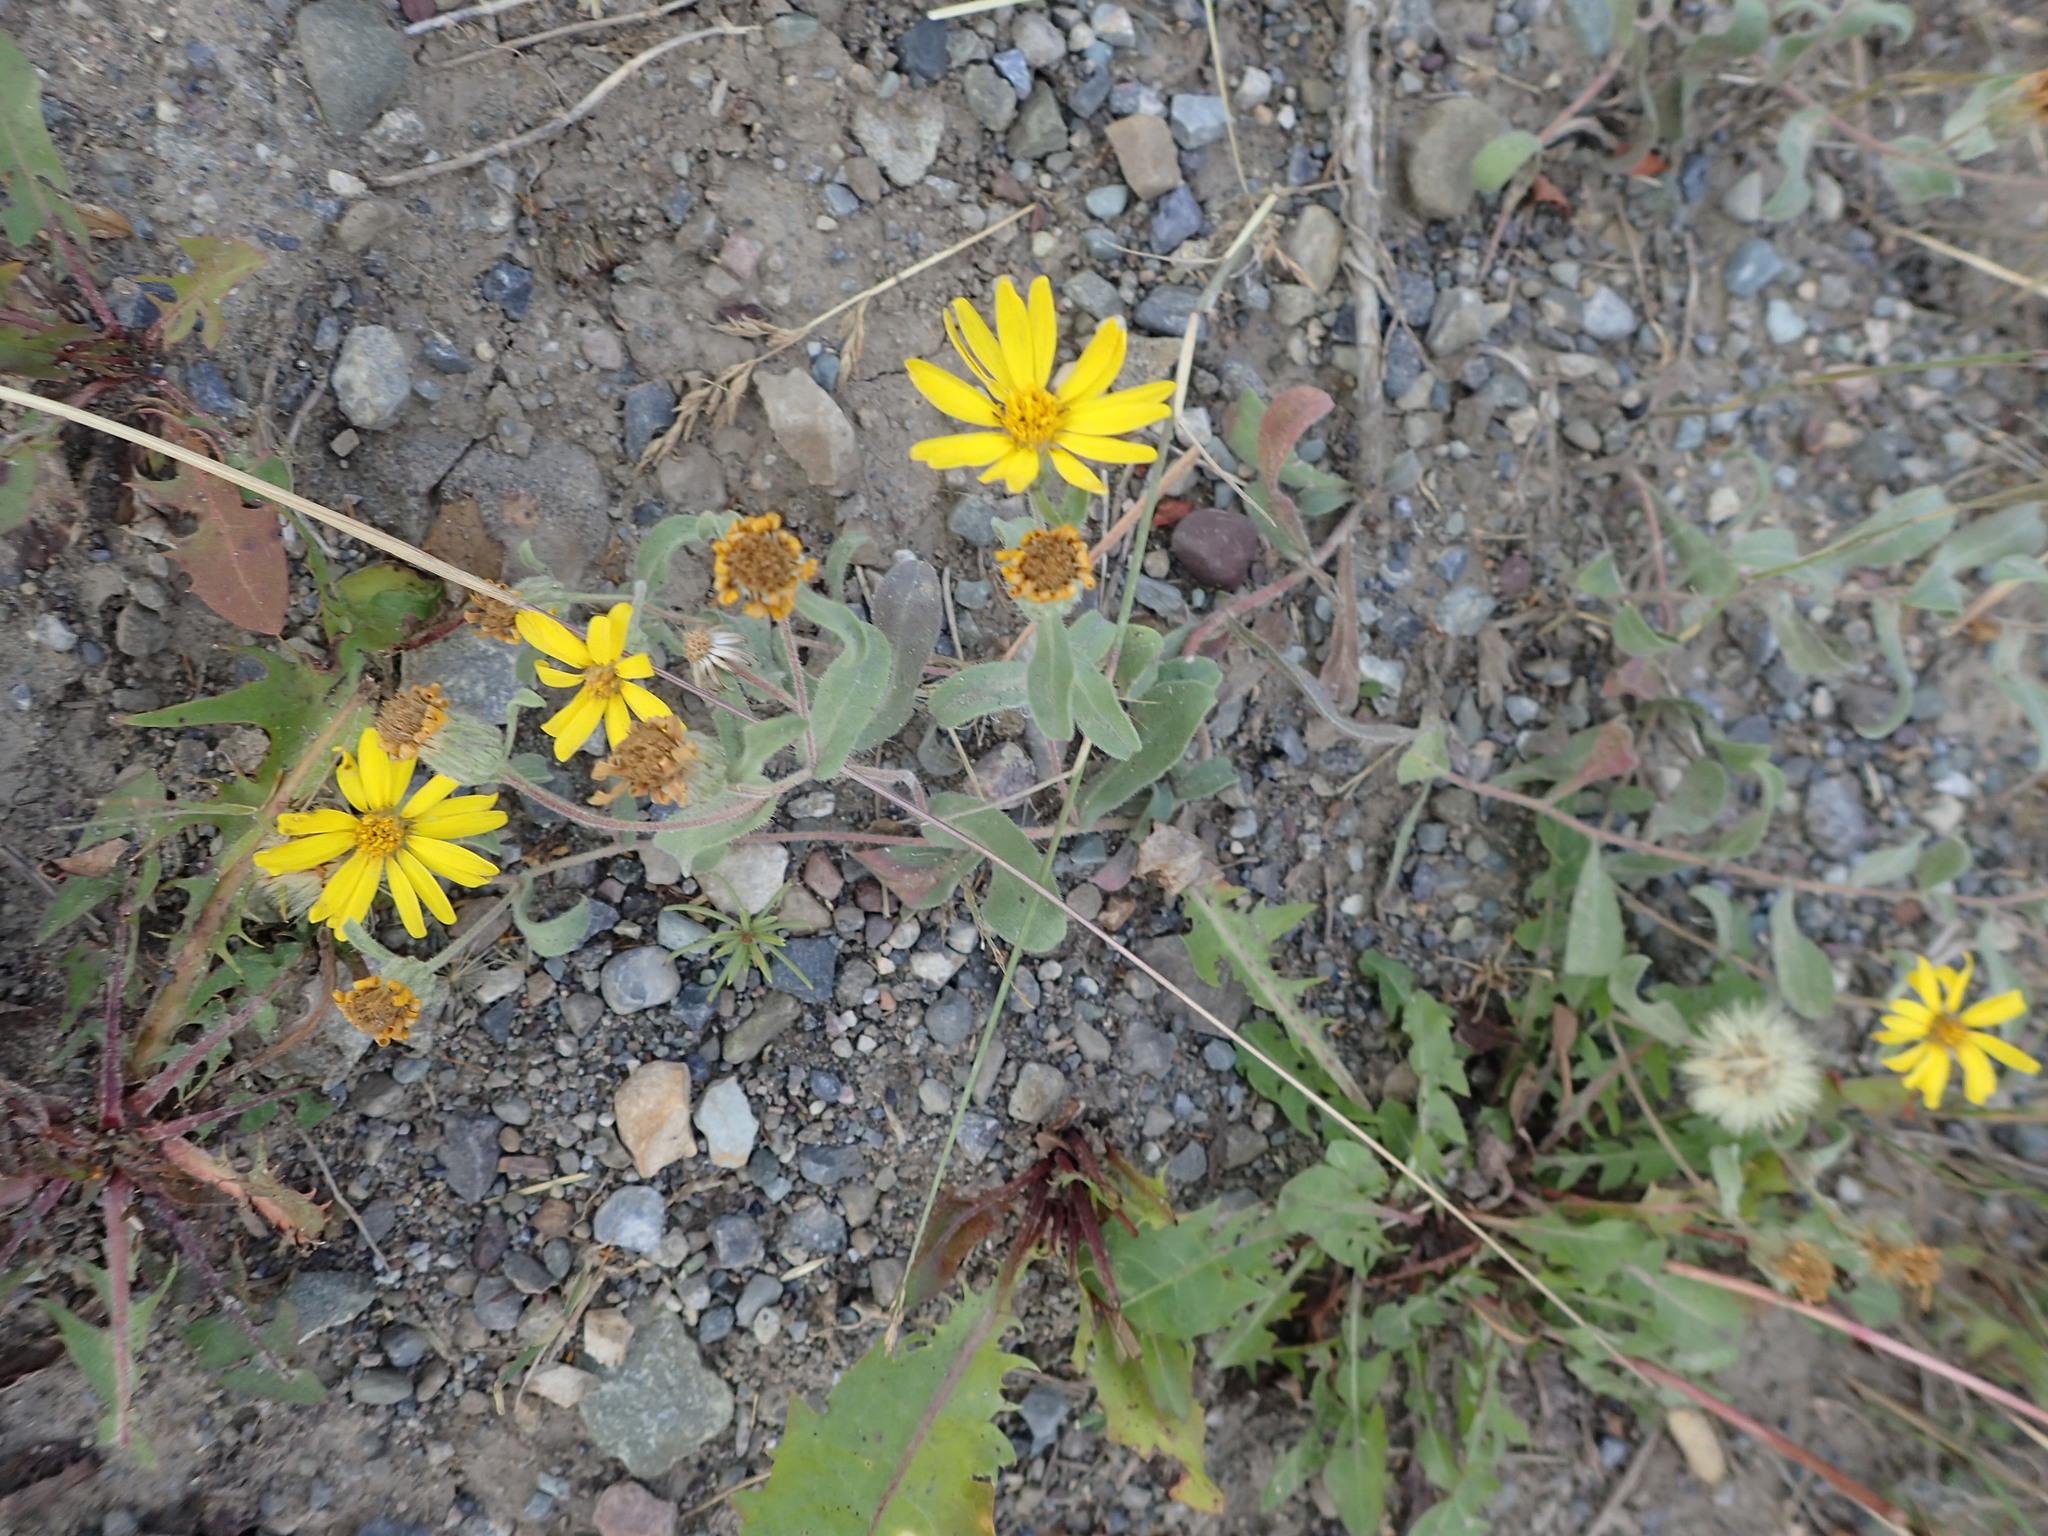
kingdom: Plantae
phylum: Tracheophyta
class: Magnoliopsida
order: Asterales
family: Asteraceae
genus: Heterotheca
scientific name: Heterotheca villosa
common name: Hairy false goldenaster
